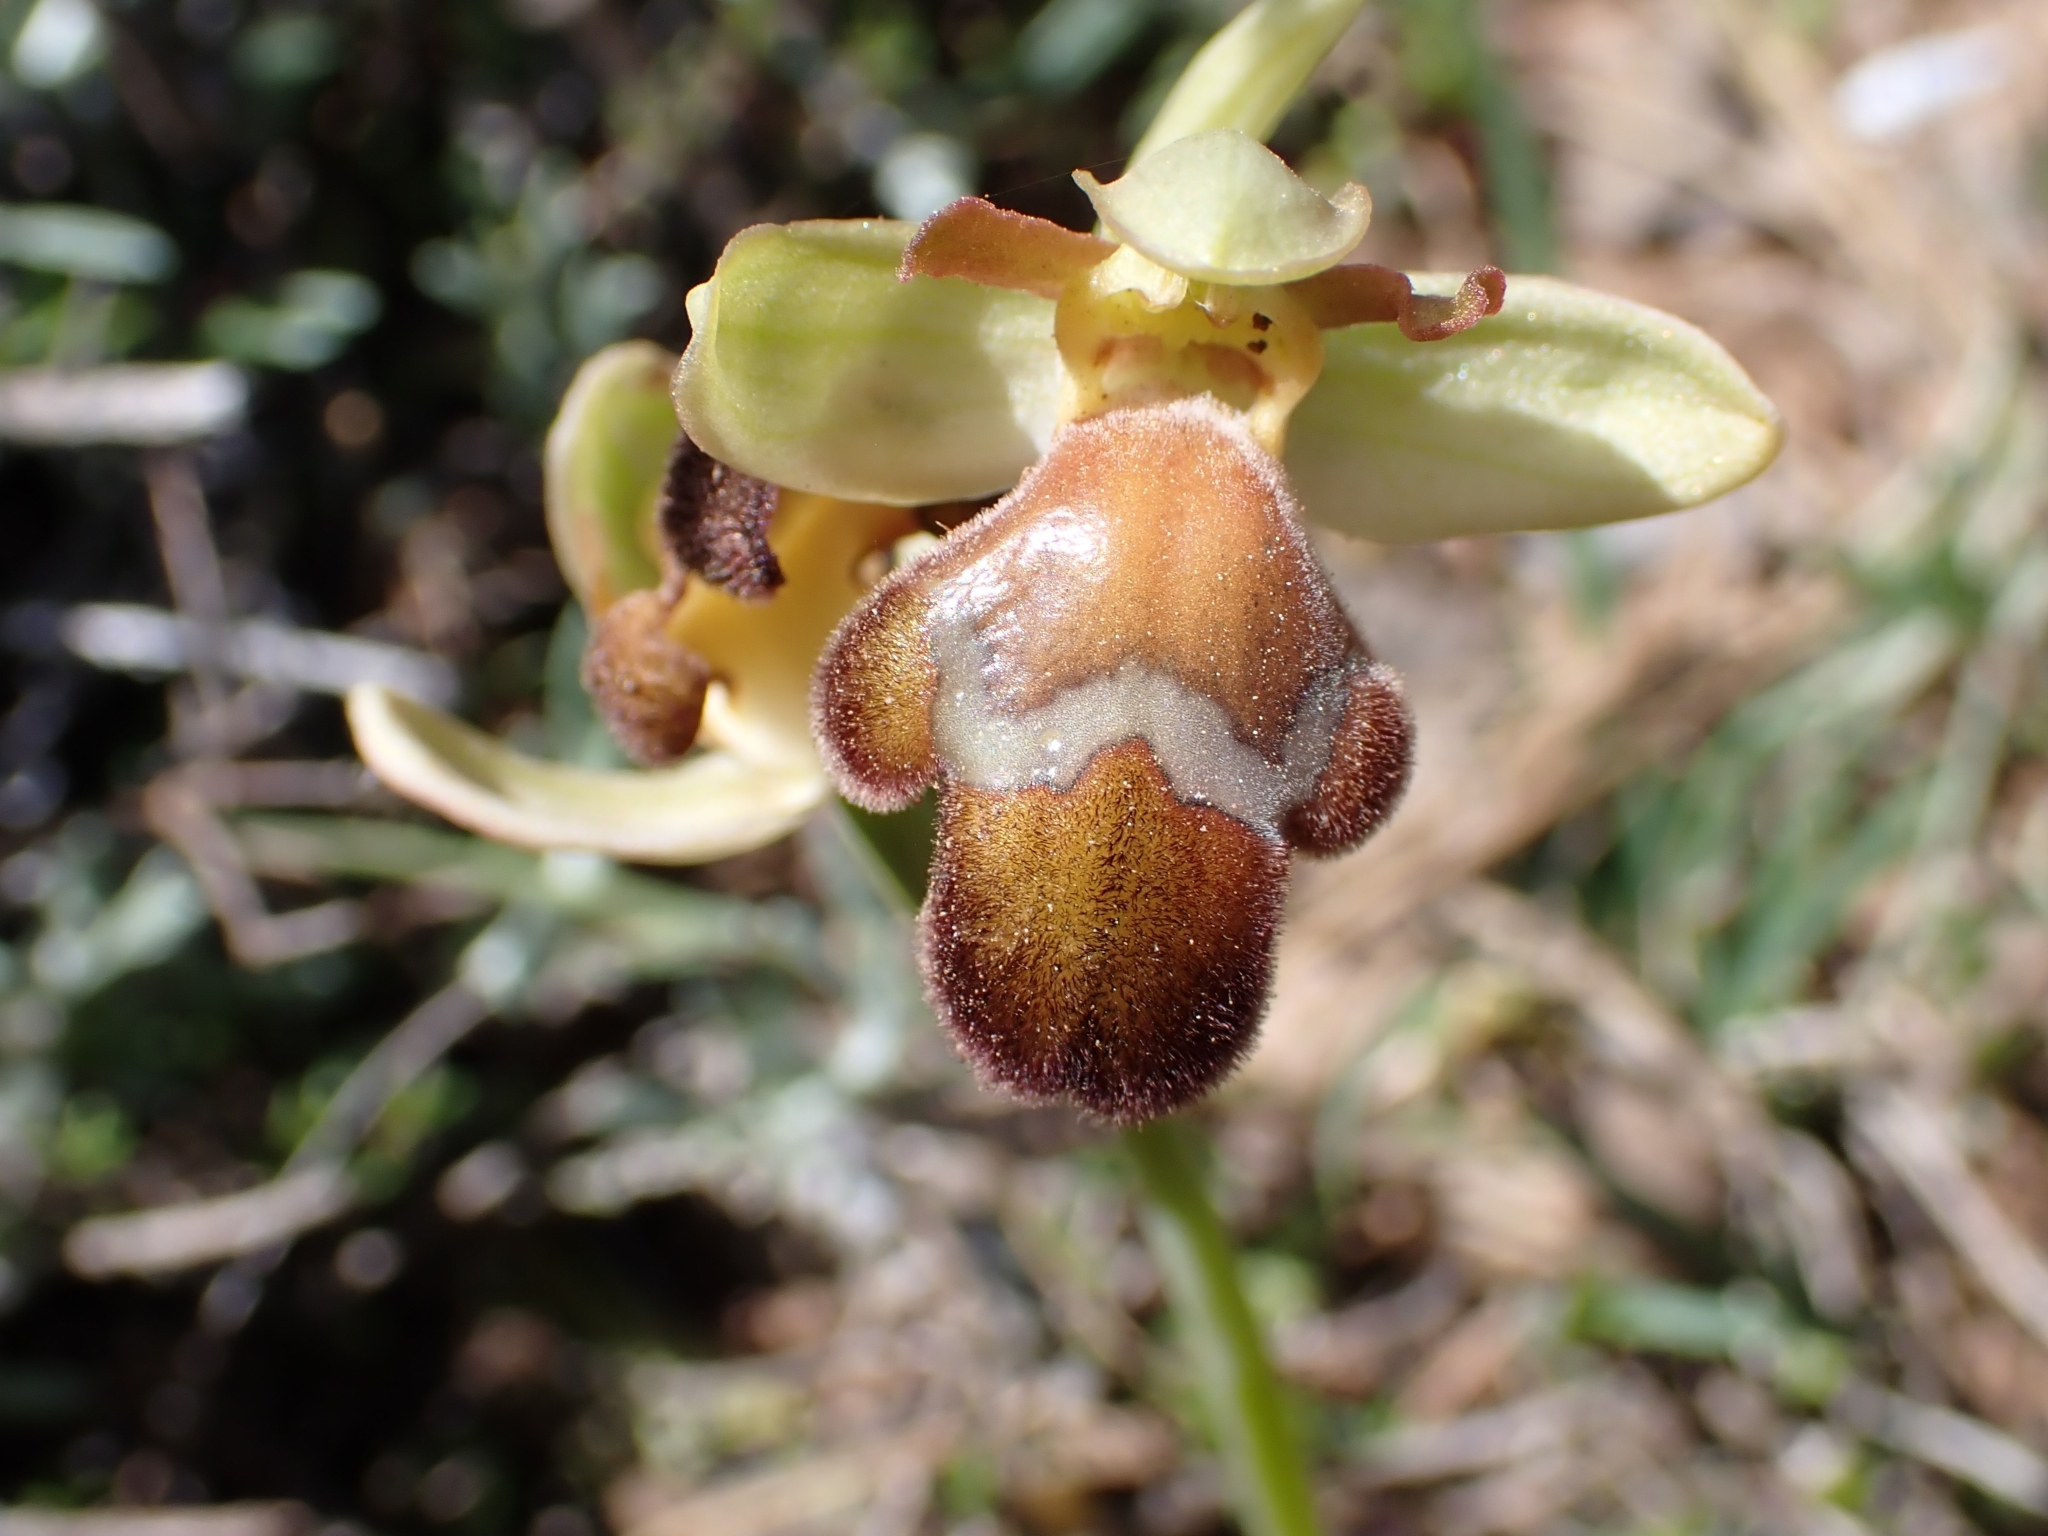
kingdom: Plantae
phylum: Tracheophyta
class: Liliopsida
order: Asparagales
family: Orchidaceae
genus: Ophrys
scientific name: Ophrys omegaifera
